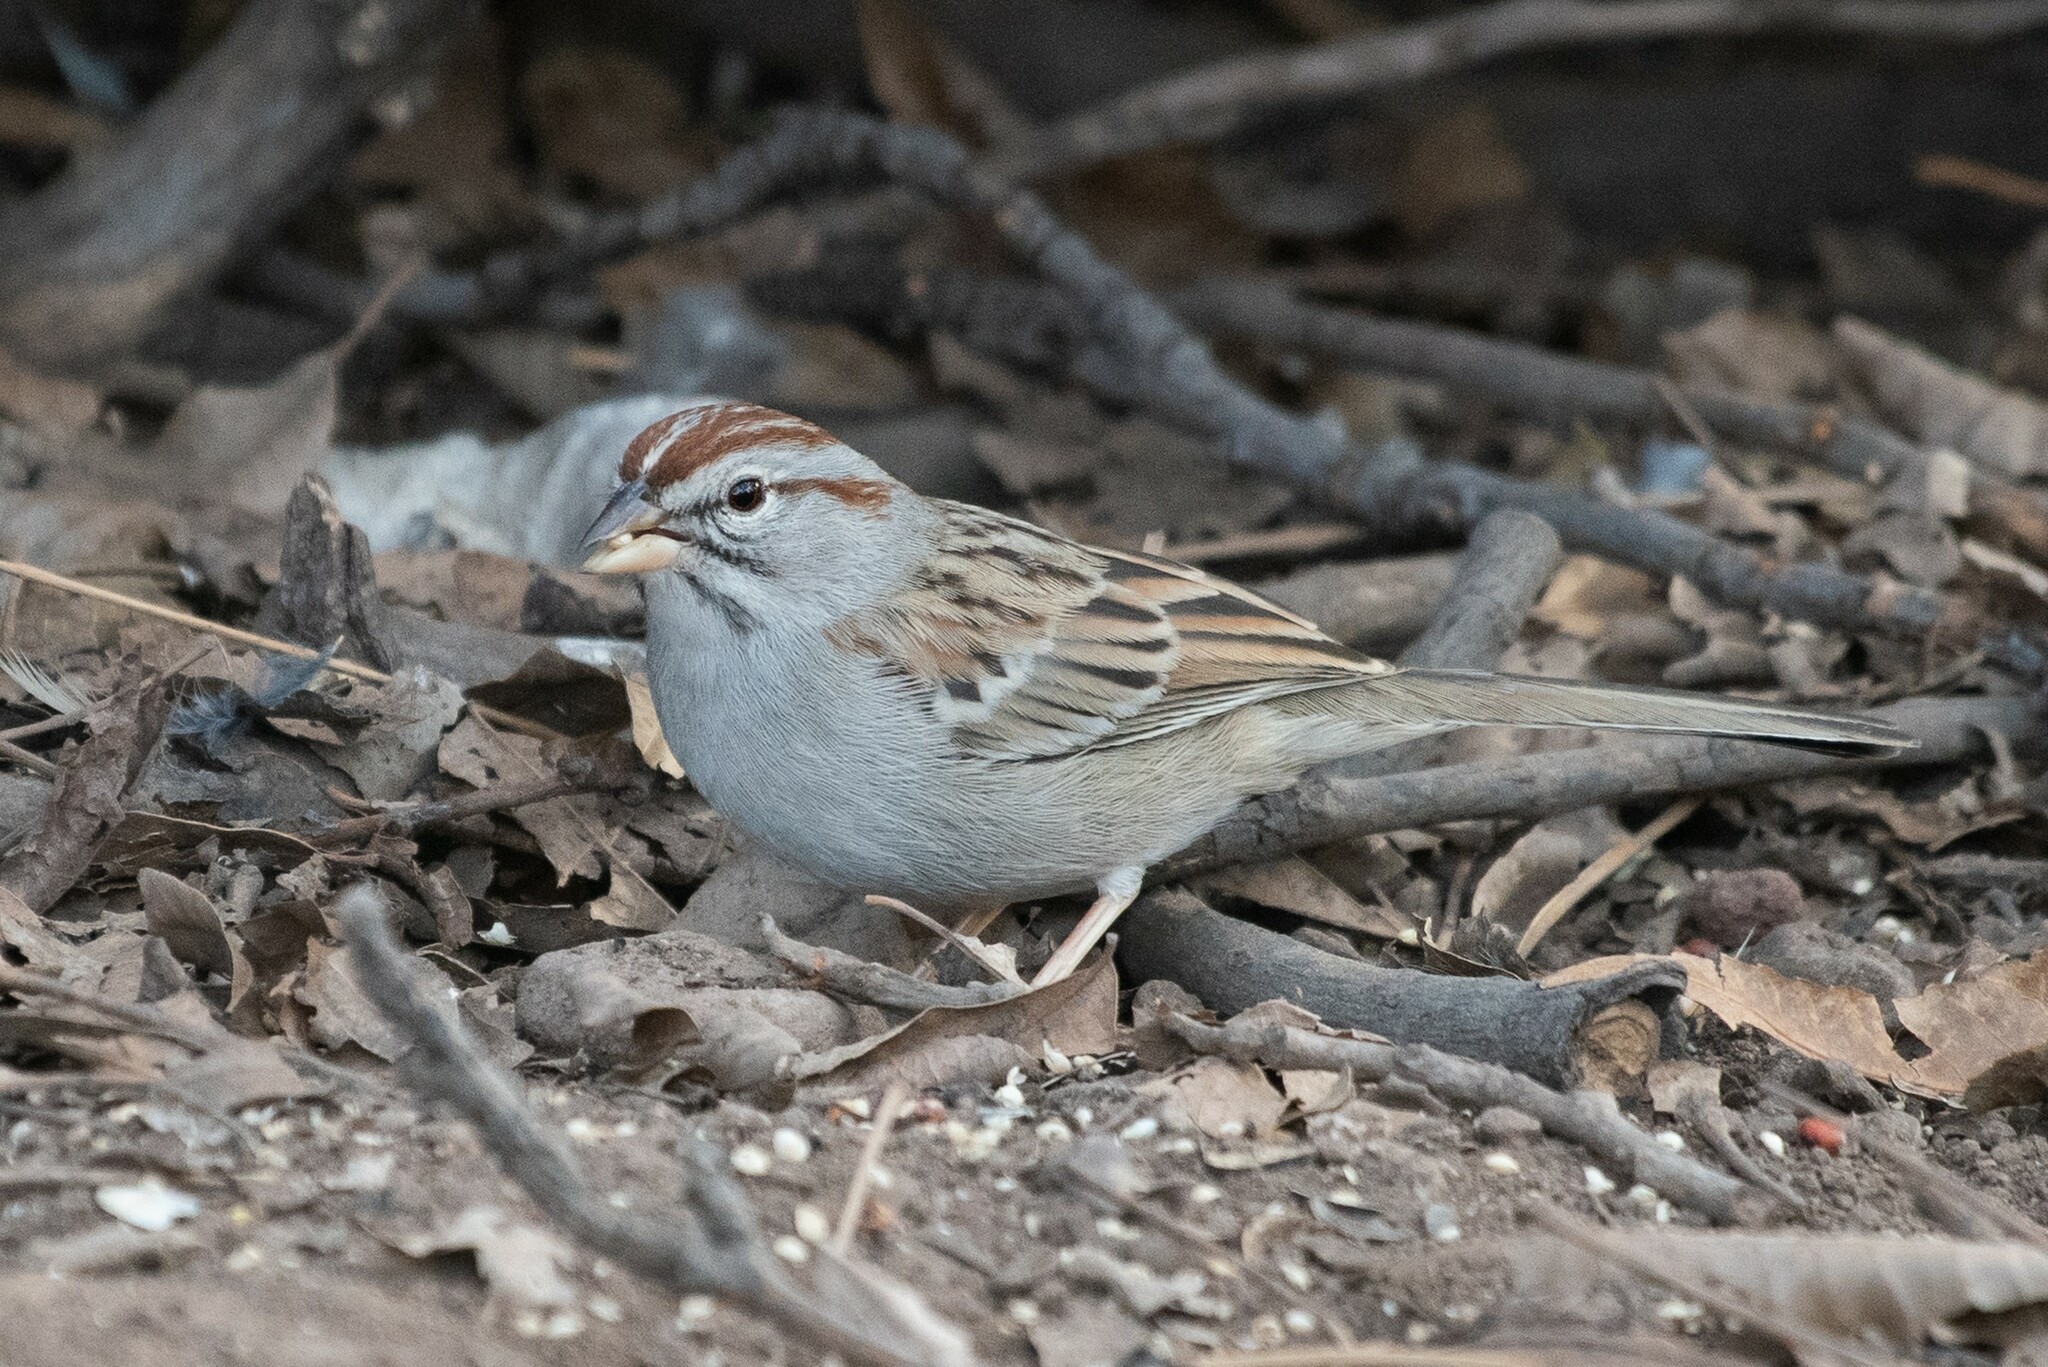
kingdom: Animalia
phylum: Chordata
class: Aves
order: Passeriformes
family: Passerellidae
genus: Peucaea
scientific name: Peucaea carpalis
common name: Rufous-winged sparrow
